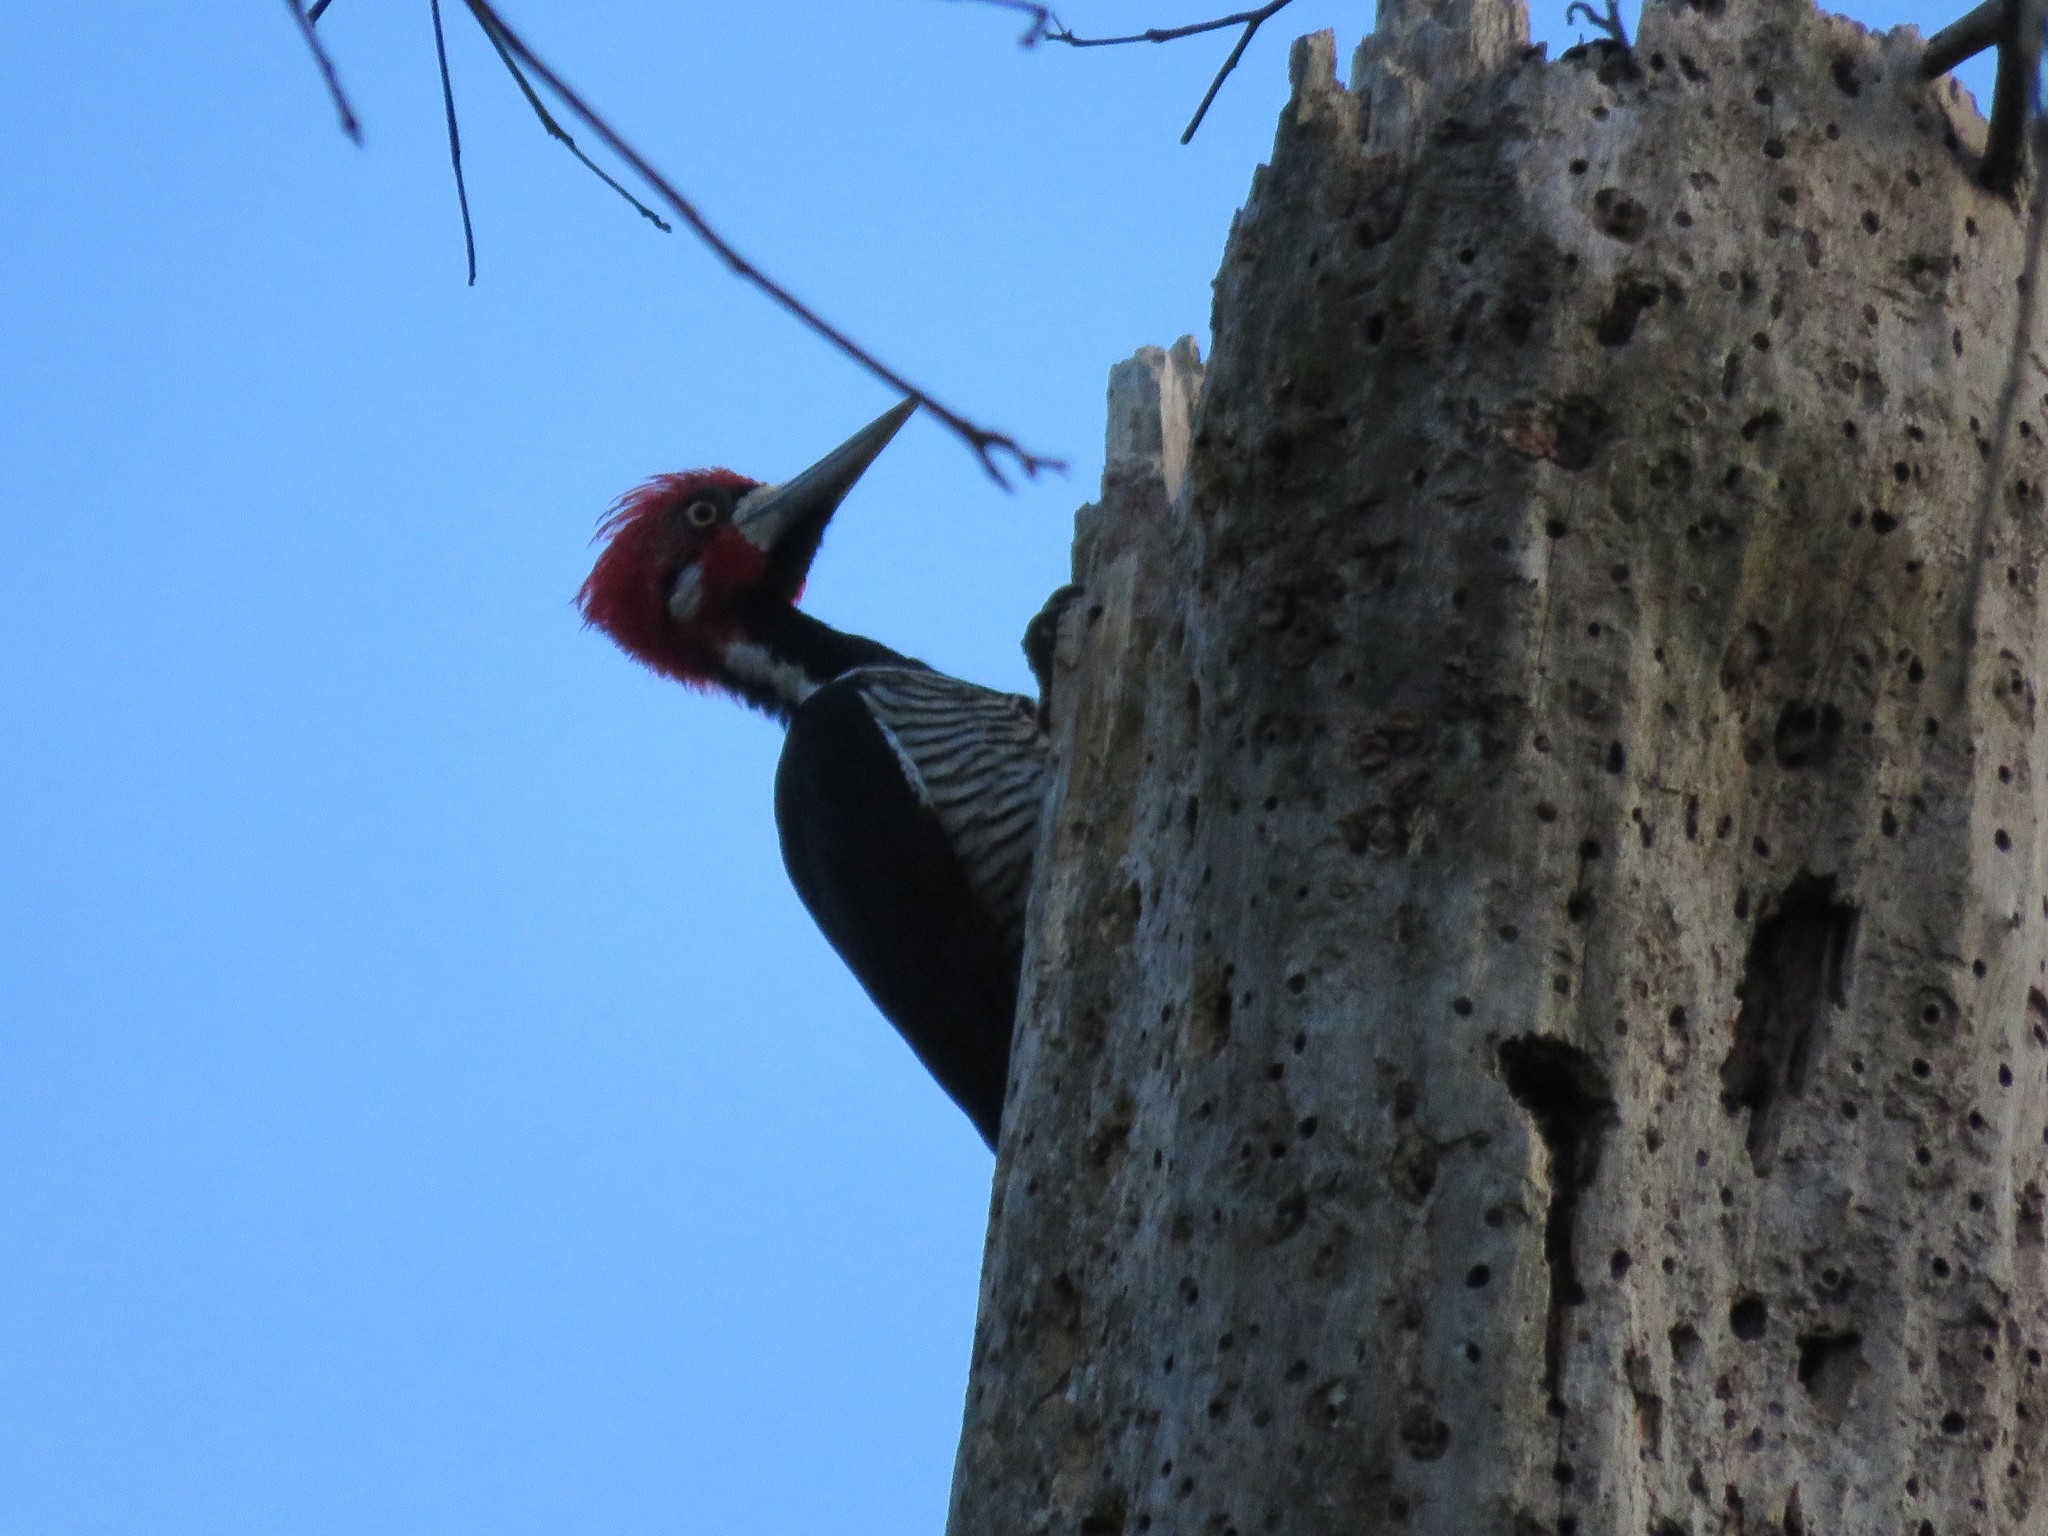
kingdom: Animalia
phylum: Chordata
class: Aves
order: Piciformes
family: Picidae
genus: Campephilus
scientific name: Campephilus melanoleucos
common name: Crimson-crested woodpecker
